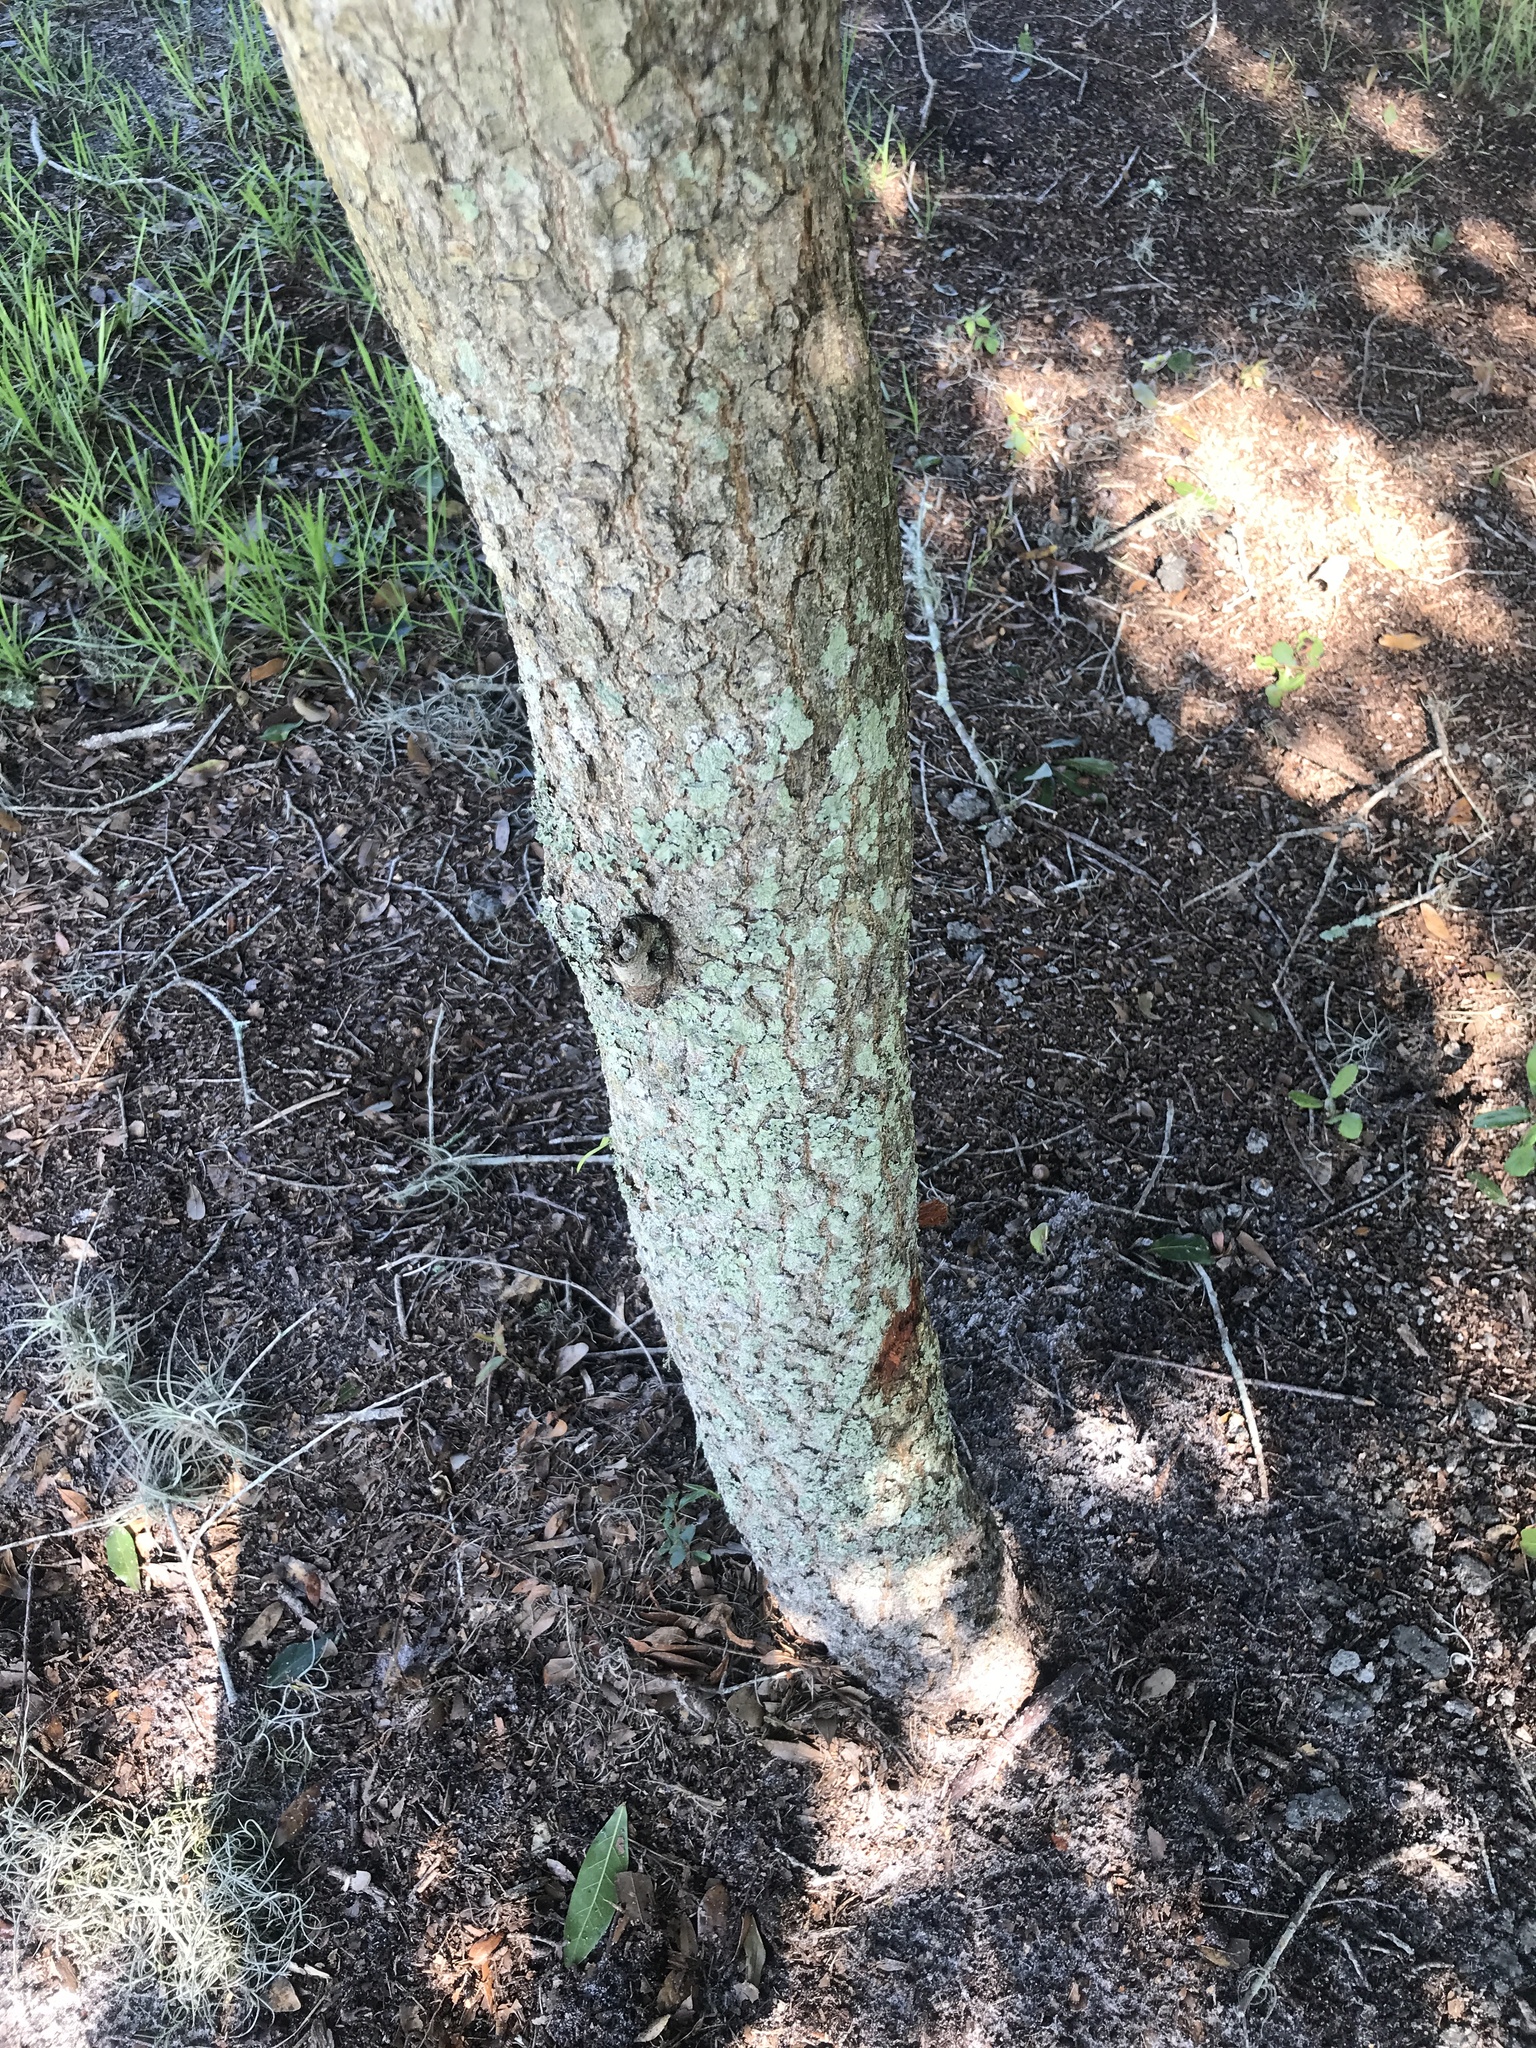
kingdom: Plantae
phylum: Tracheophyta
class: Magnoliopsida
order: Fagales
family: Fagaceae
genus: Quercus
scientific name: Quercus virginiana
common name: Southern live oak
